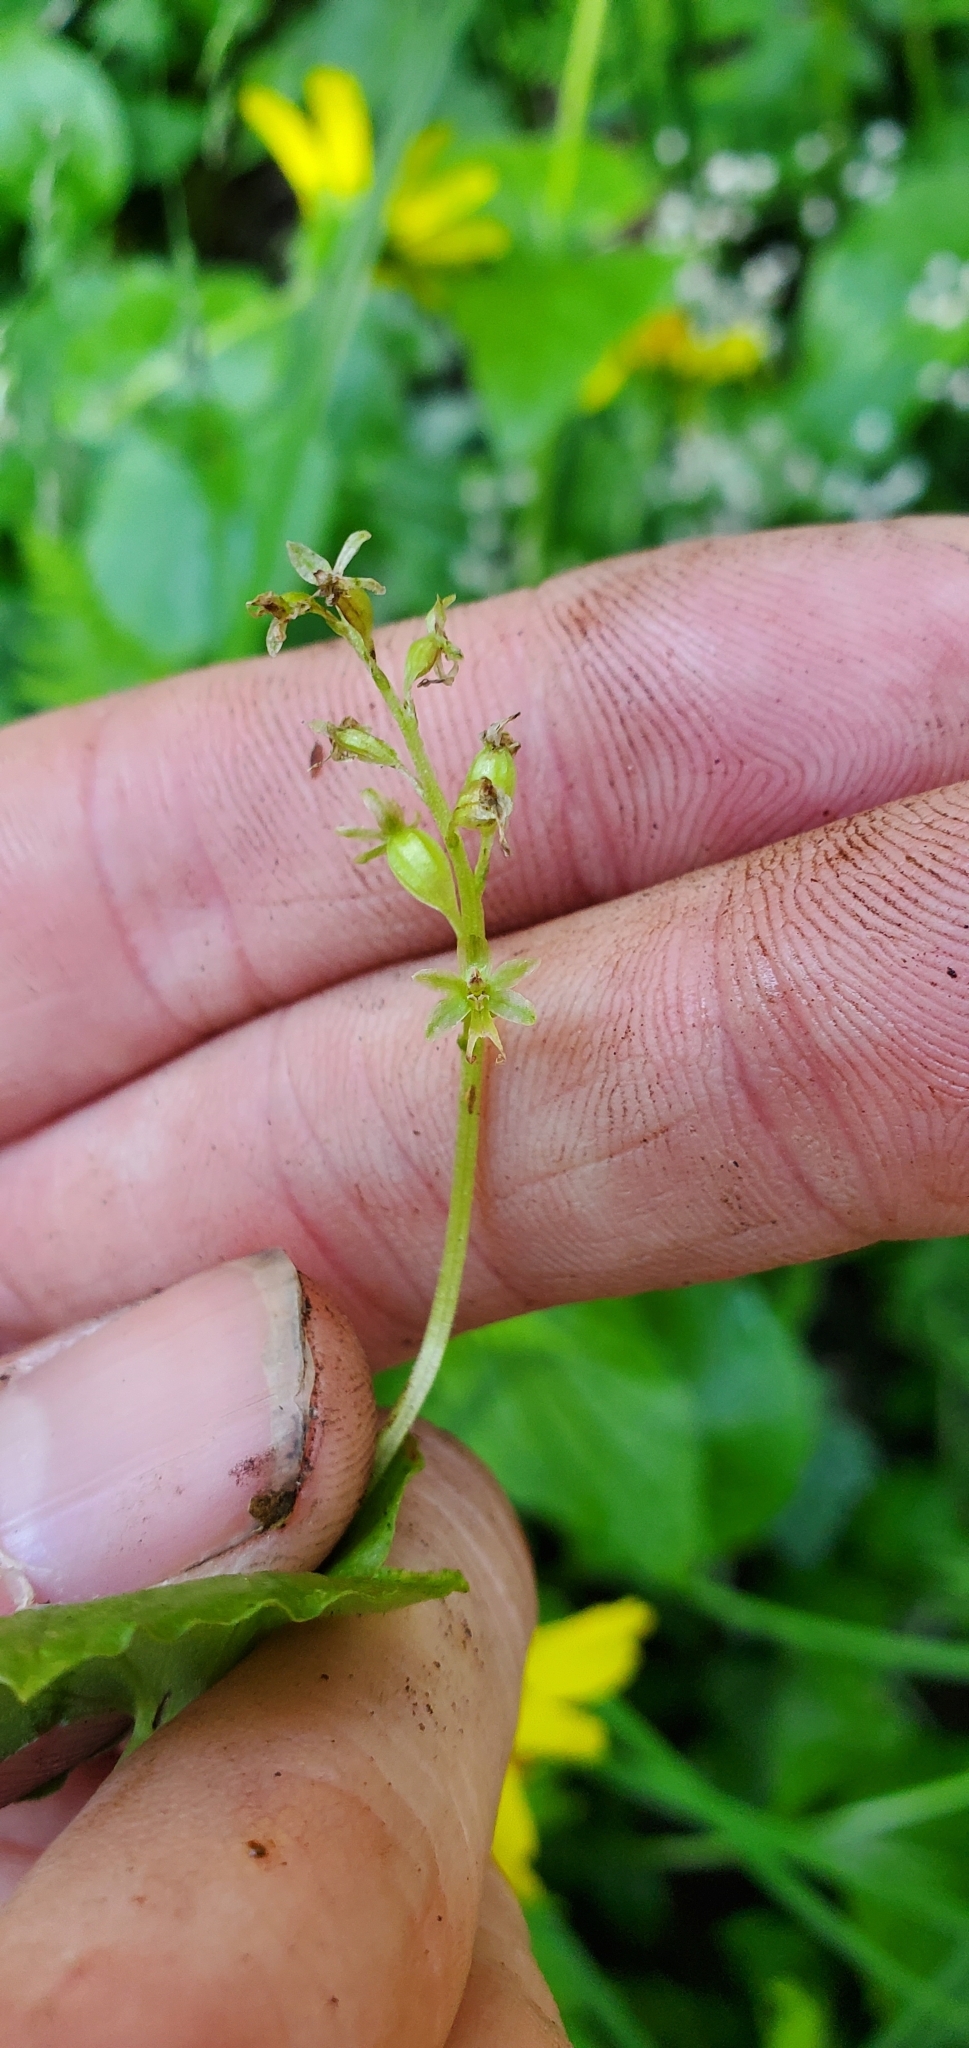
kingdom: Plantae
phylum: Tracheophyta
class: Liliopsida
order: Asparagales
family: Orchidaceae
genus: Neottia
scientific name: Neottia cordata
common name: Lesser twayblade
